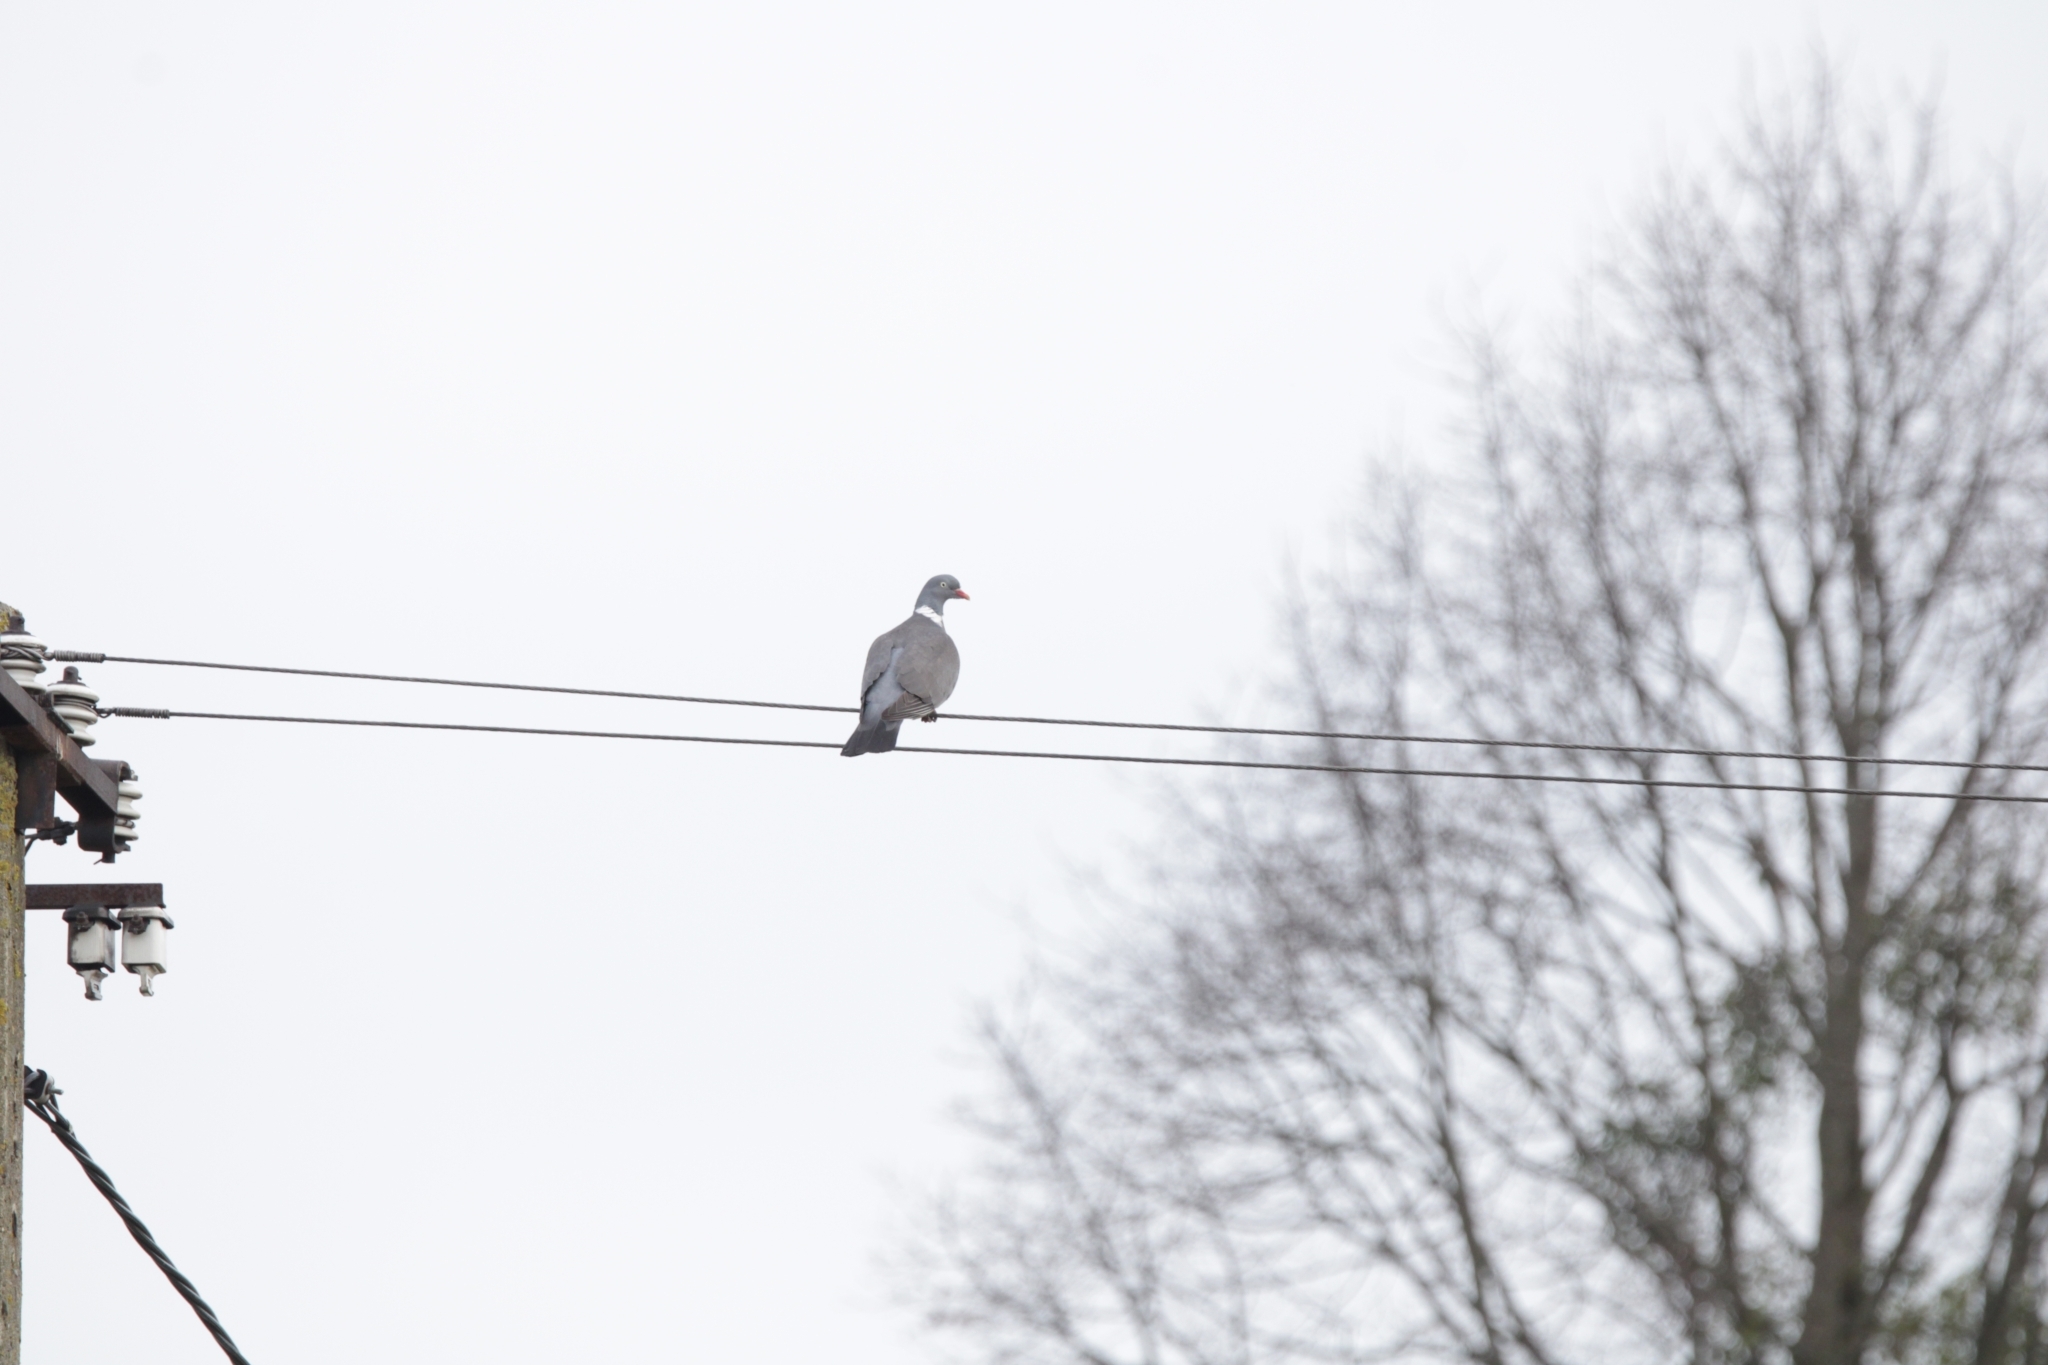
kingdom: Animalia
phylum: Chordata
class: Aves
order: Columbiformes
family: Columbidae
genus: Columba
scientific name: Columba palumbus
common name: Common wood pigeon
